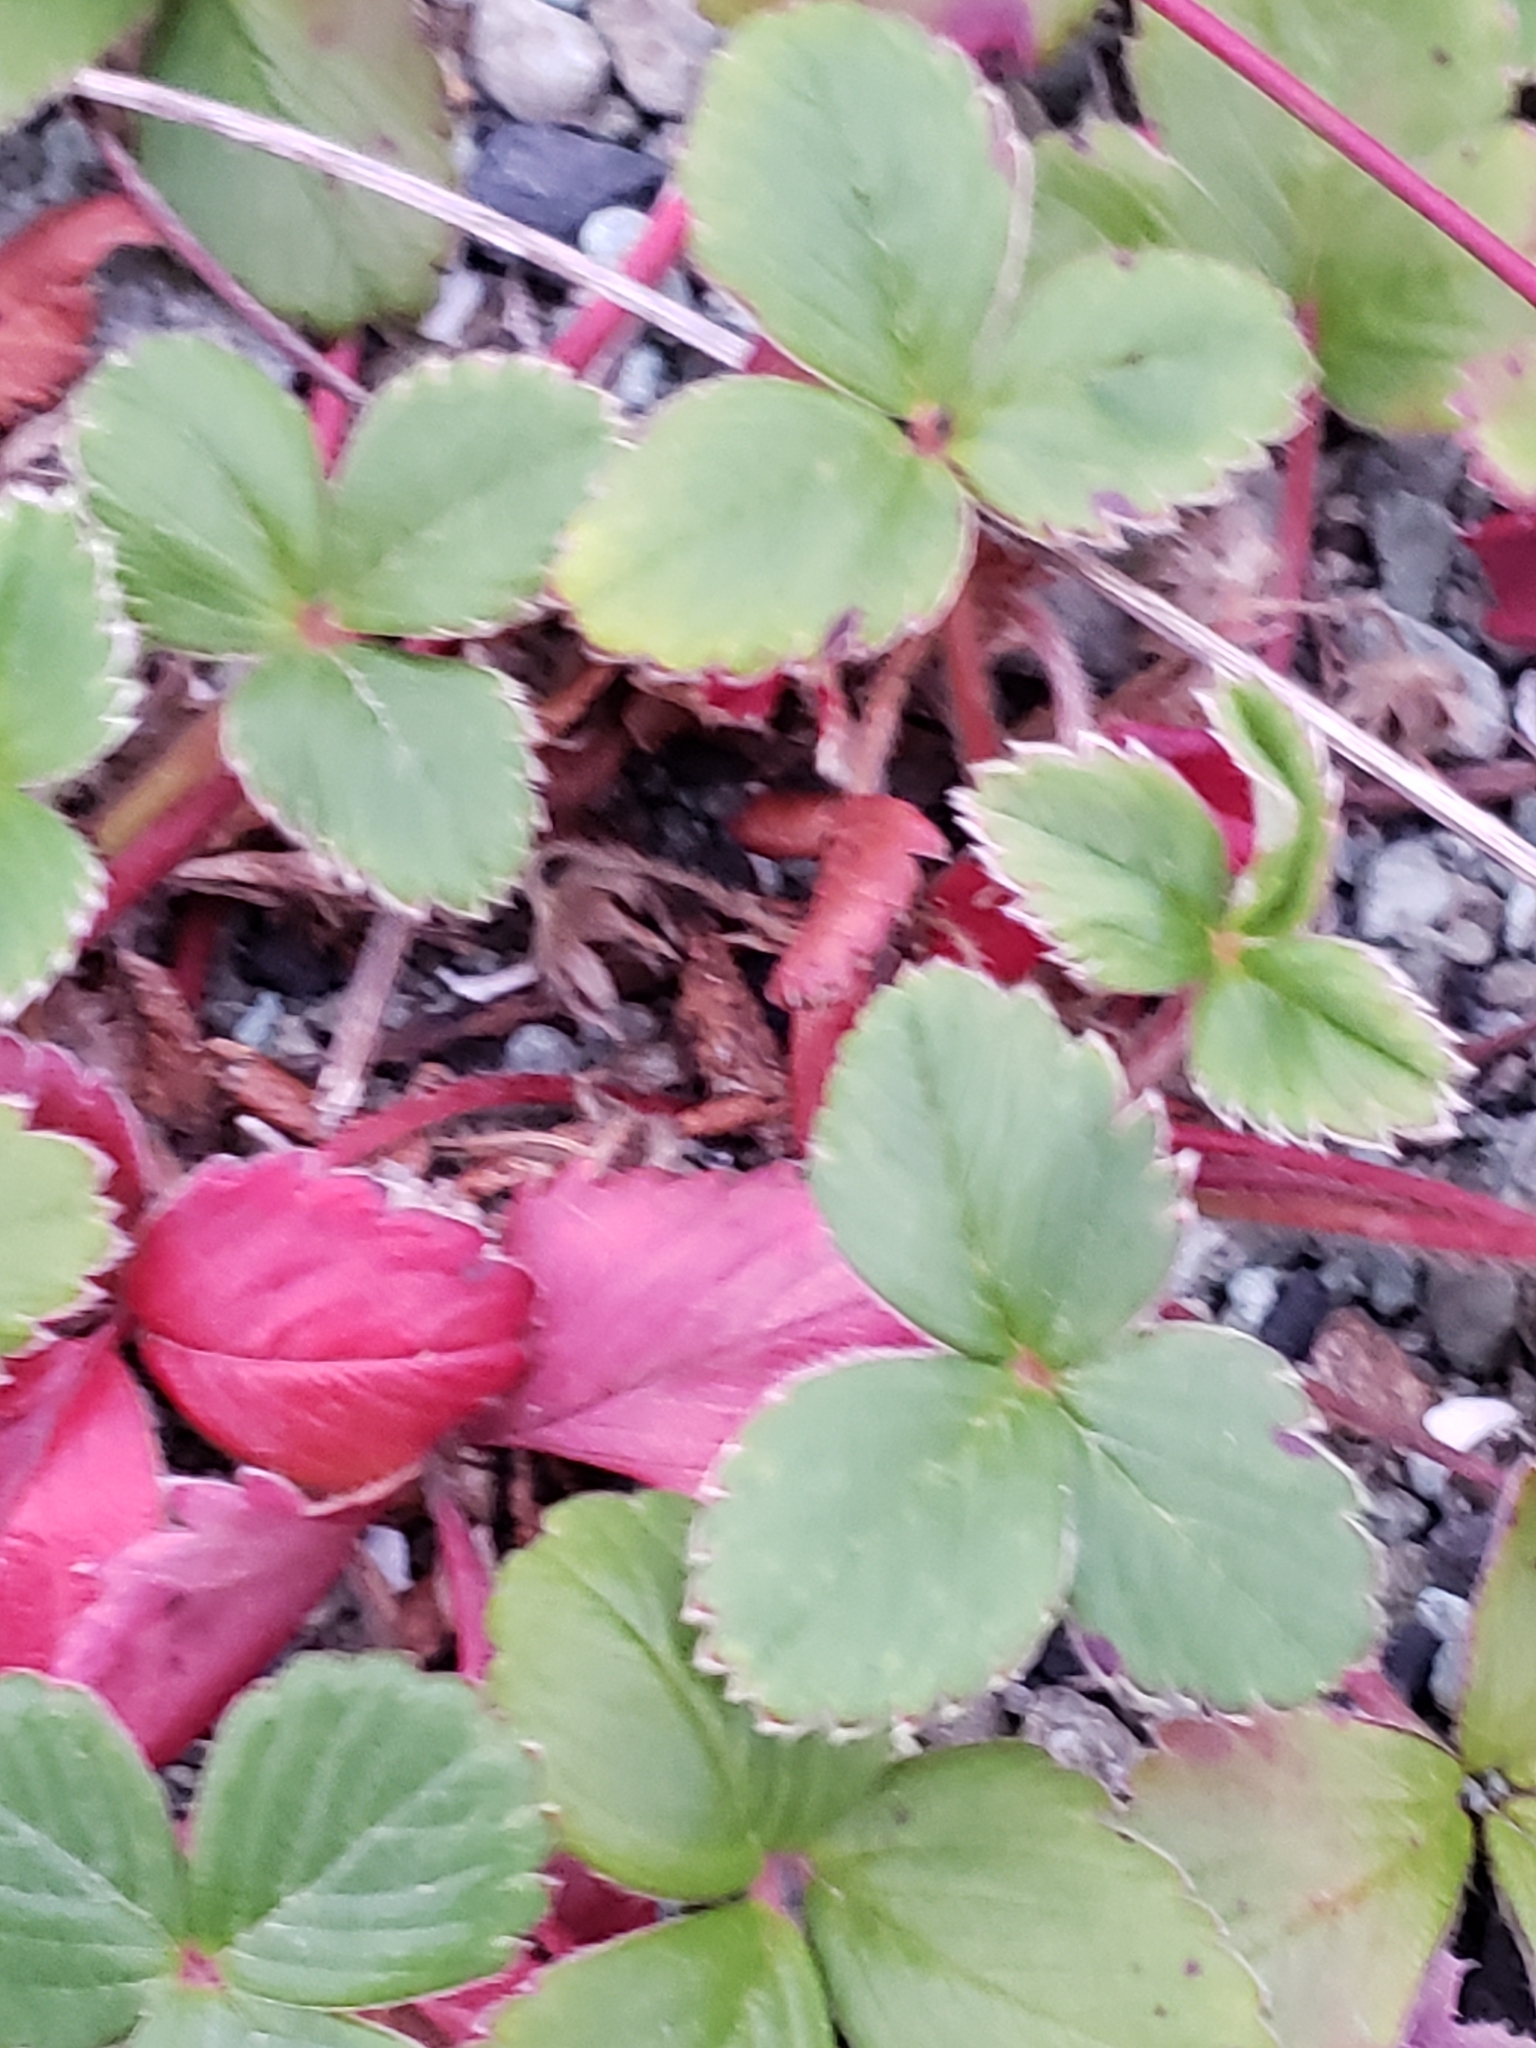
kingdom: Plantae
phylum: Tracheophyta
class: Magnoliopsida
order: Rosales
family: Rosaceae
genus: Fragaria
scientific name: Fragaria chiloensis
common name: Beach strawberry
